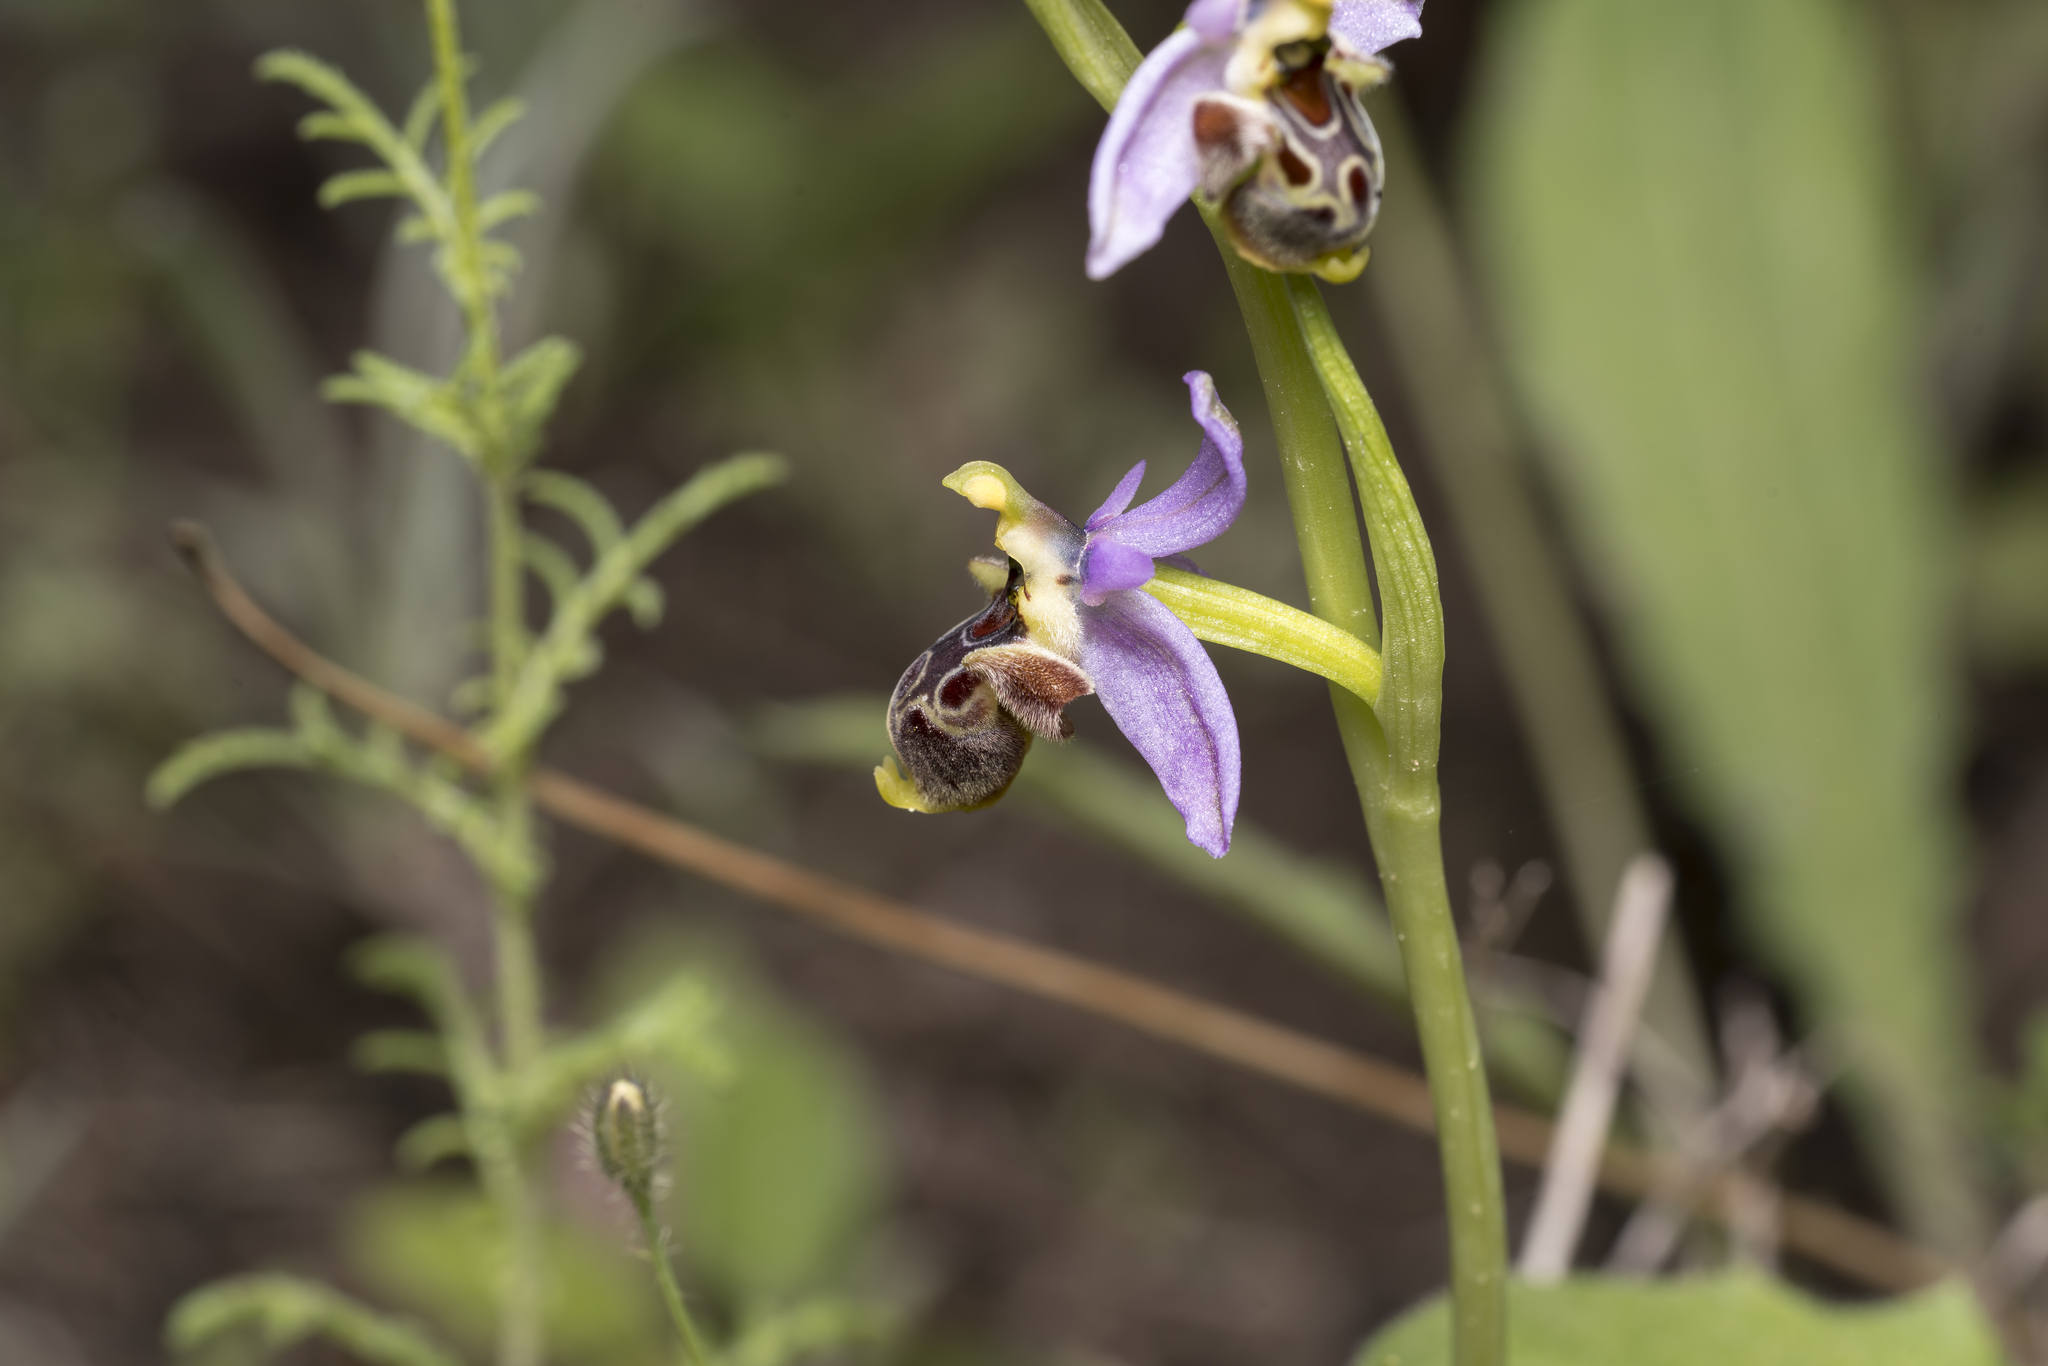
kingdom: Plantae
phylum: Tracheophyta
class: Liliopsida
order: Asparagales
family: Orchidaceae
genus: Ophrys
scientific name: Ophrys scolopax
